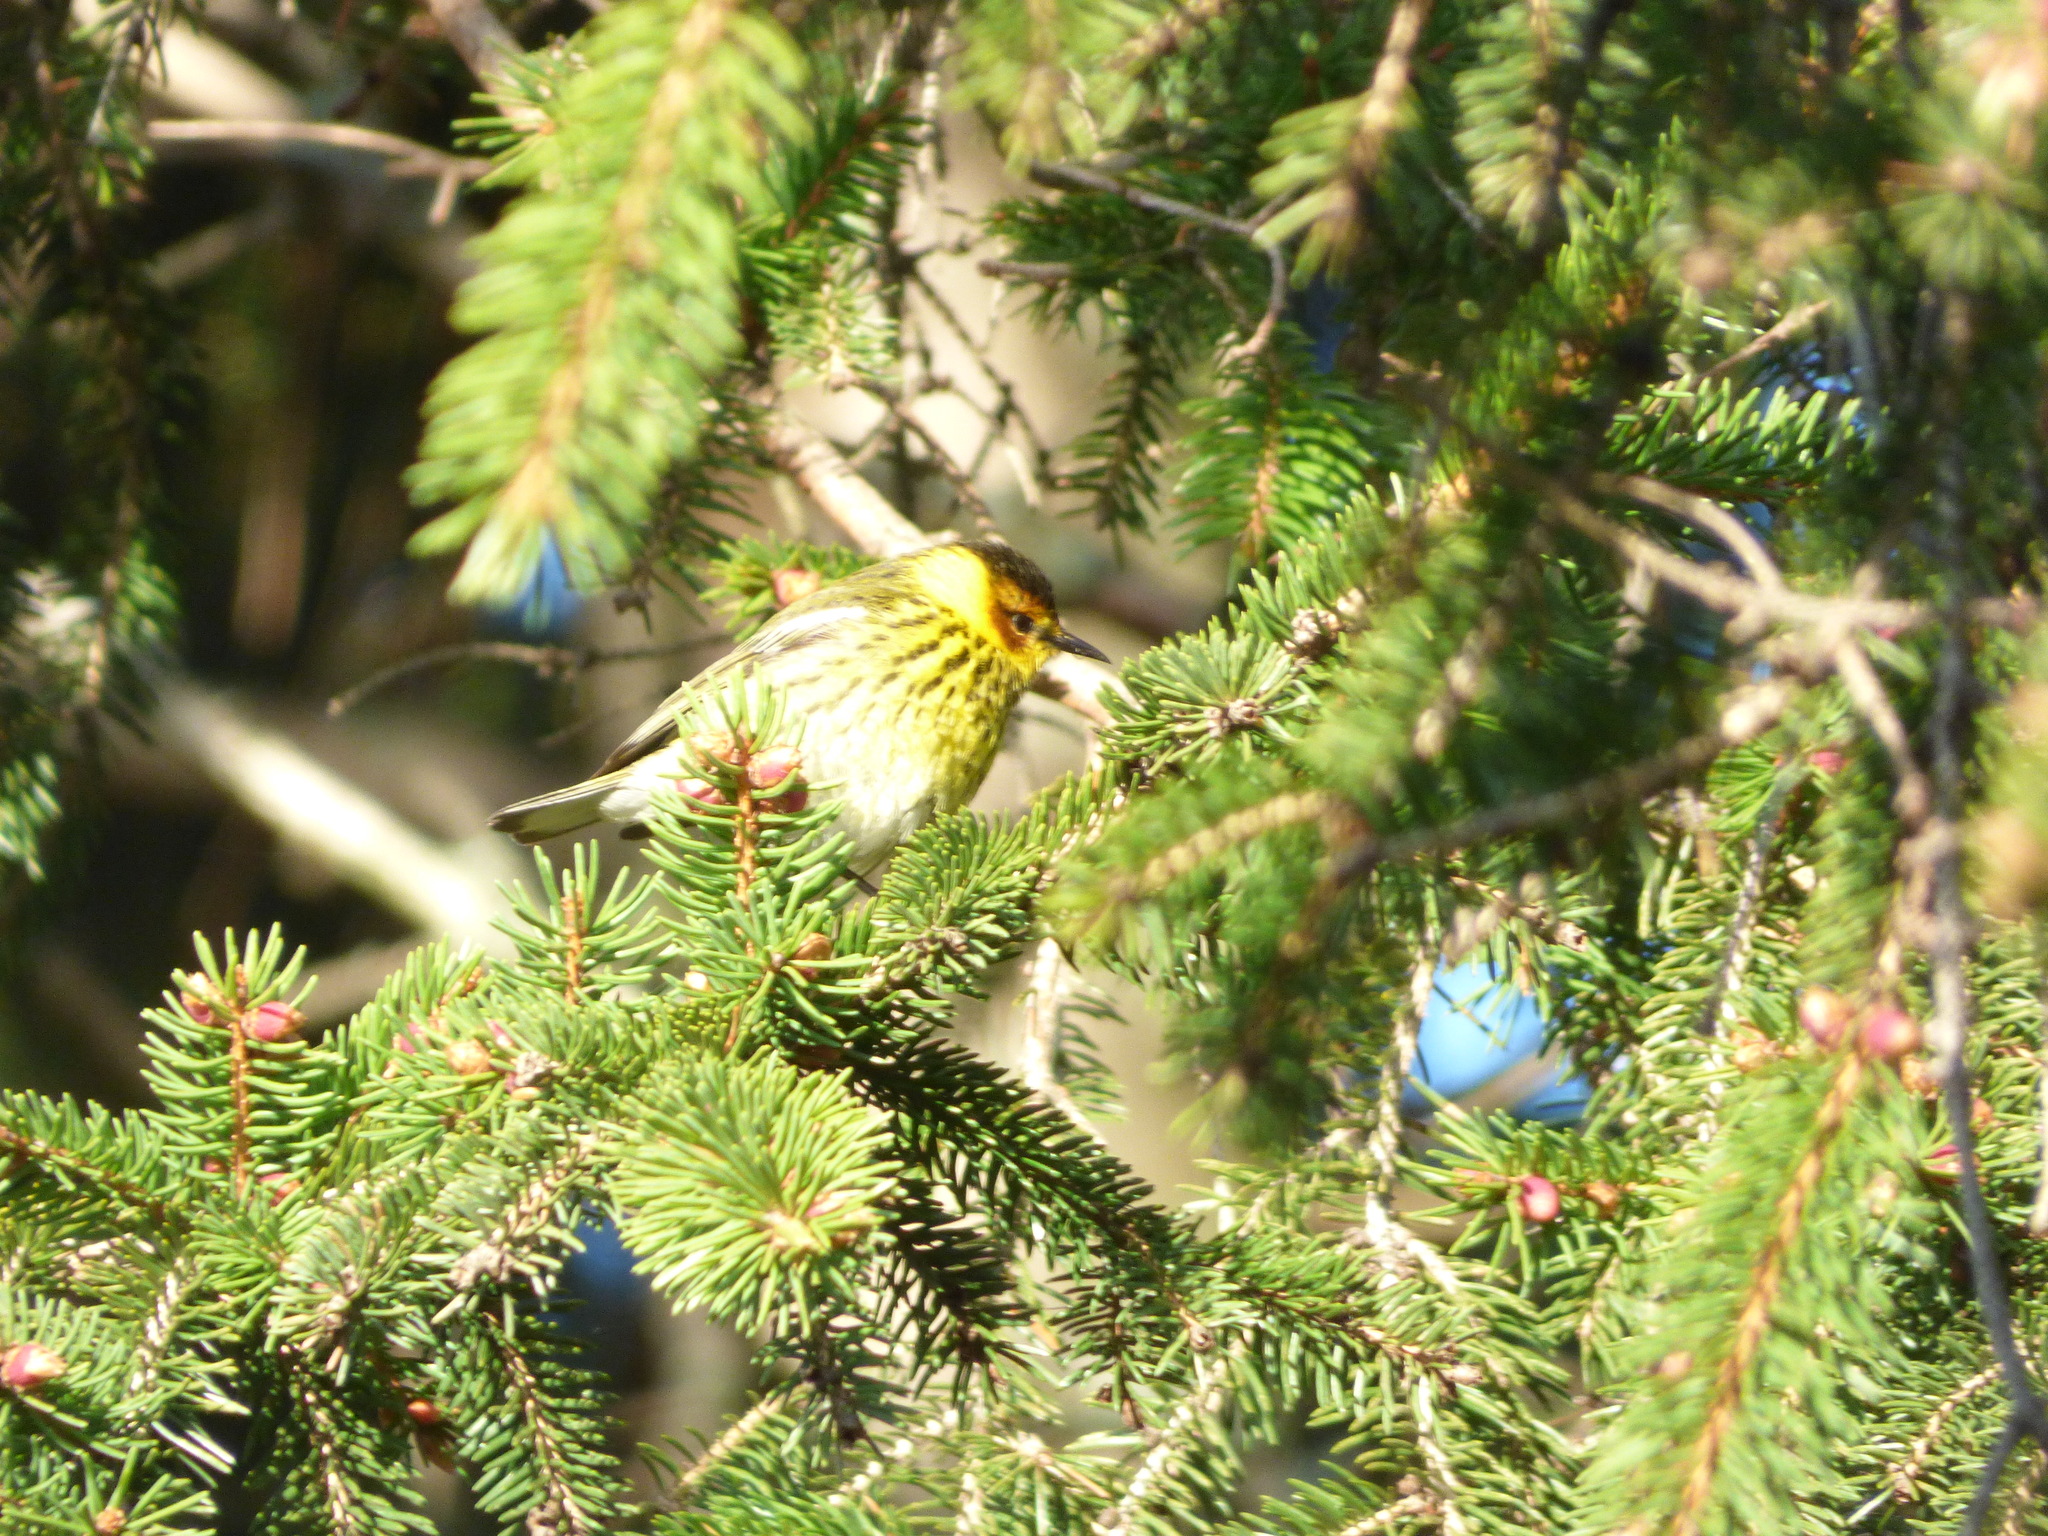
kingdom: Animalia
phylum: Chordata
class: Aves
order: Passeriformes
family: Parulidae
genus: Setophaga
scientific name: Setophaga tigrina
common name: Cape may warbler
